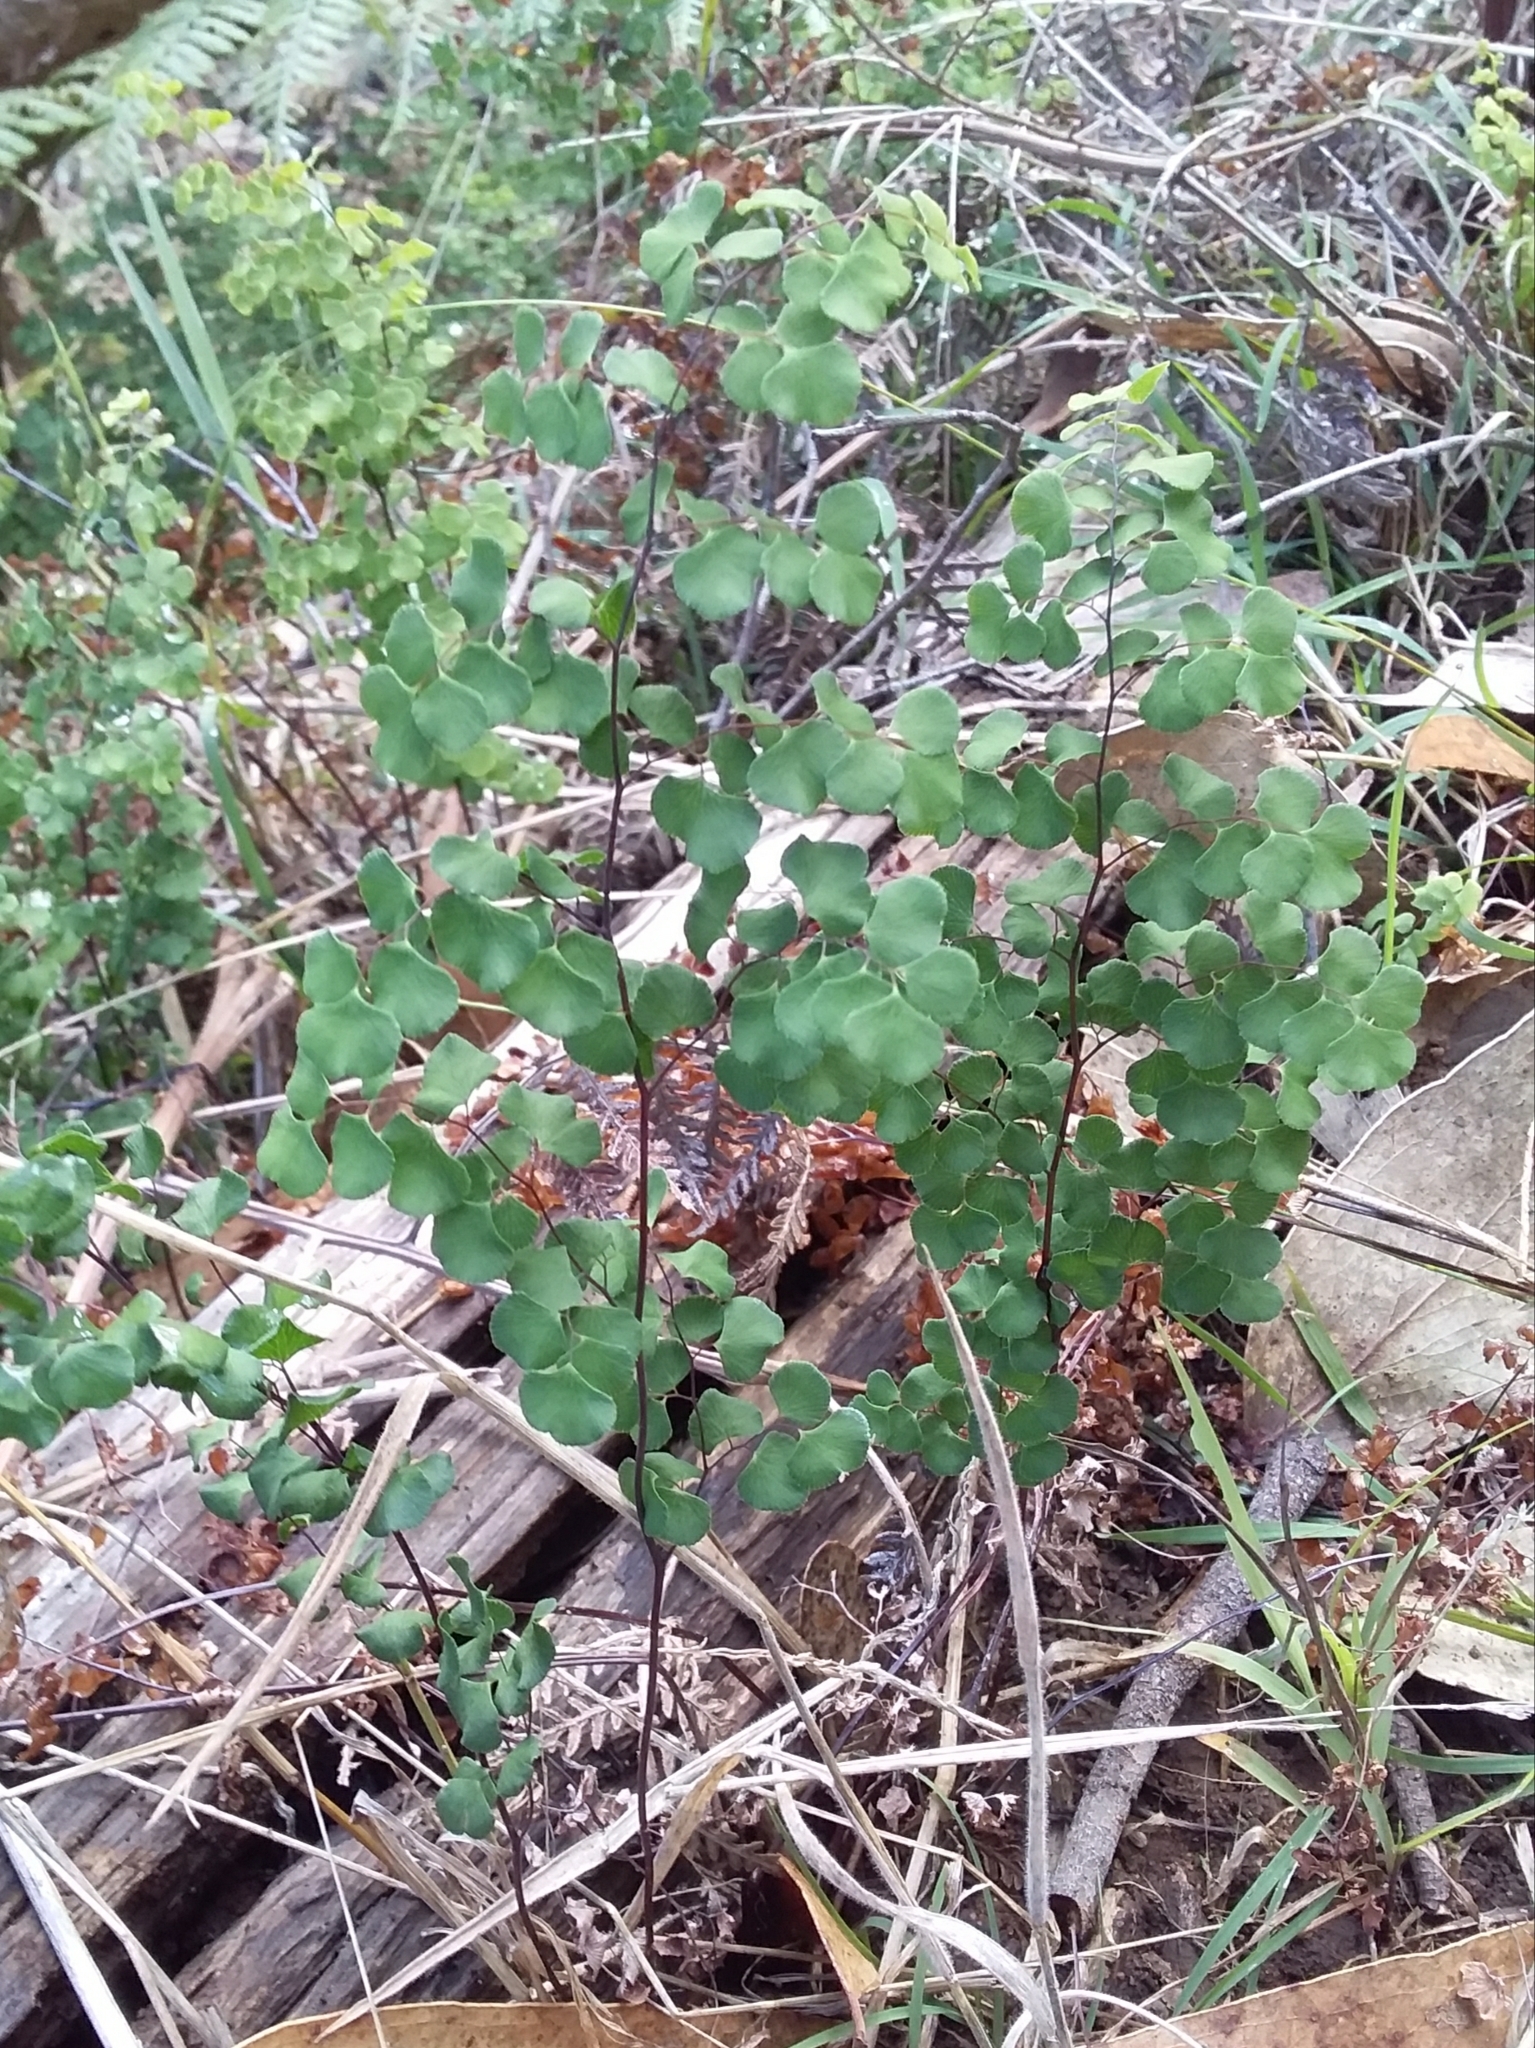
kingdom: Plantae
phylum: Tracheophyta
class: Polypodiopsida
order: Polypodiales
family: Pteridaceae
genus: Adiantum
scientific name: Adiantum aethiopicum
